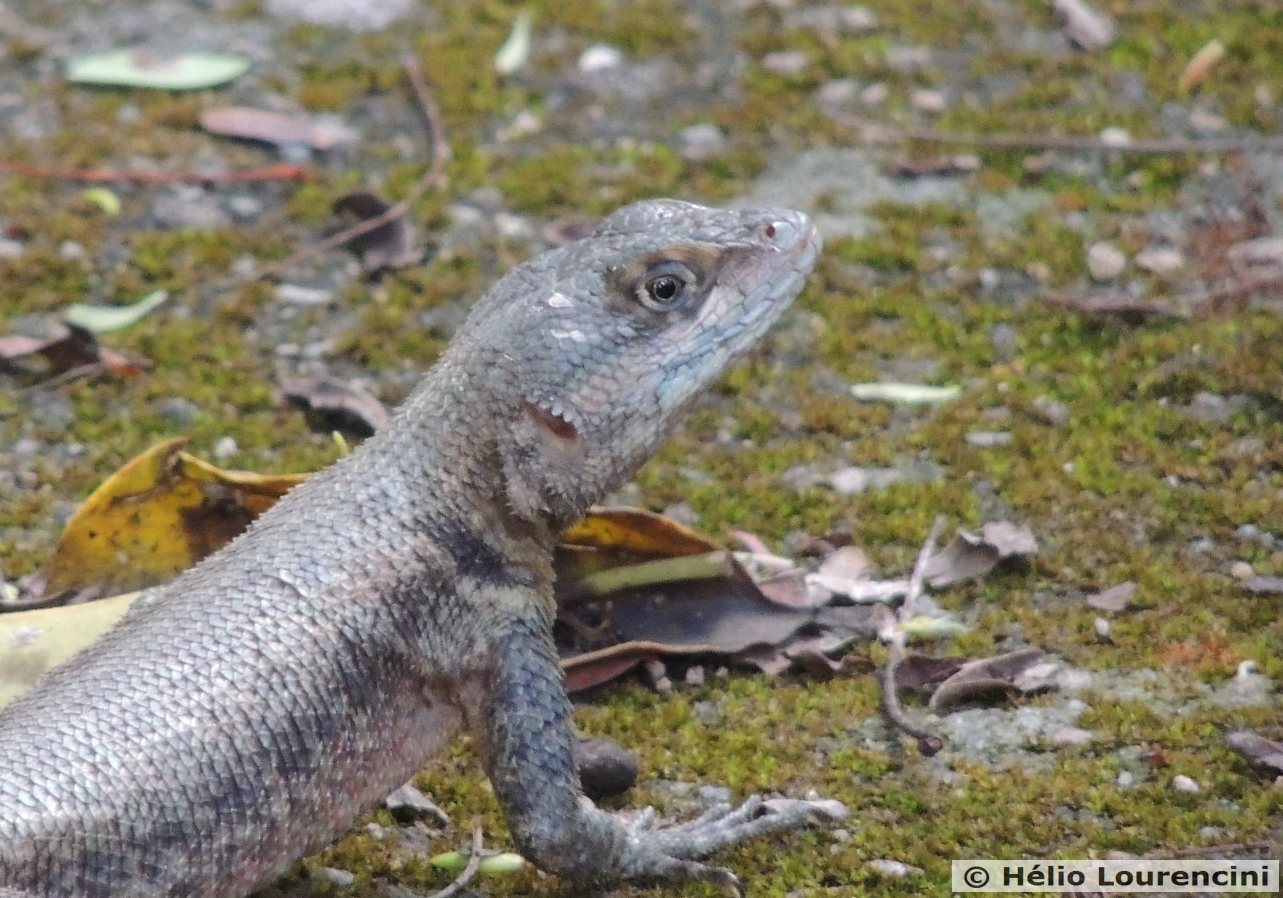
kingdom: Animalia
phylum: Chordata
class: Squamata
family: Tropiduridae
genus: Tropidurus
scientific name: Tropidurus hispidus
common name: Peters' lava lizard
